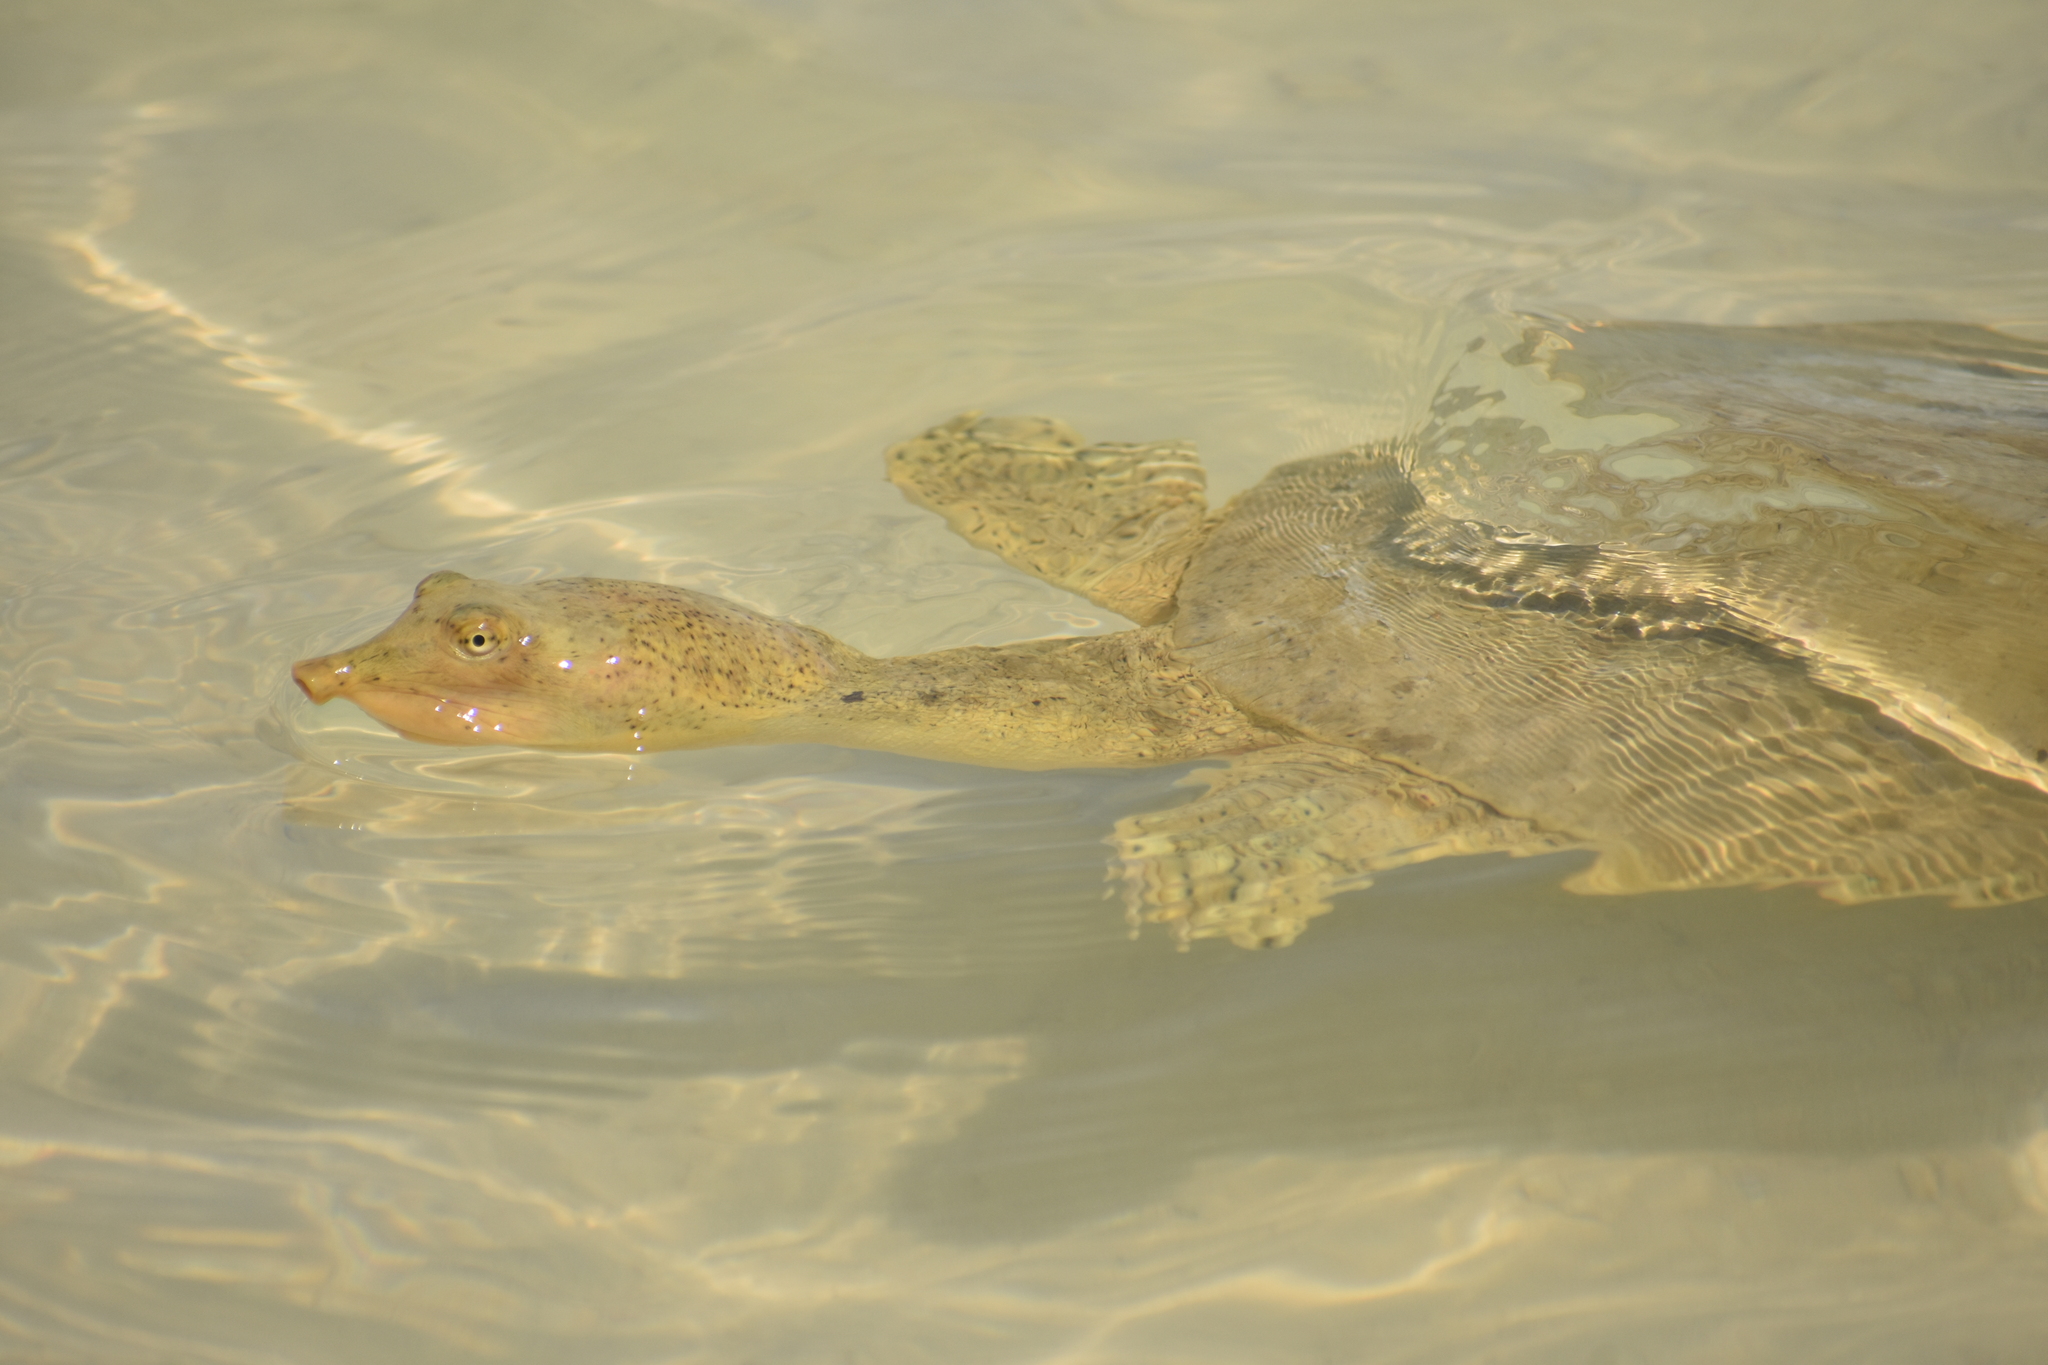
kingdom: Animalia
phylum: Chordata
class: Testudines
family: Trionychidae
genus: Apalone
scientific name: Apalone spinifera
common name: Spiny softshell turtle
